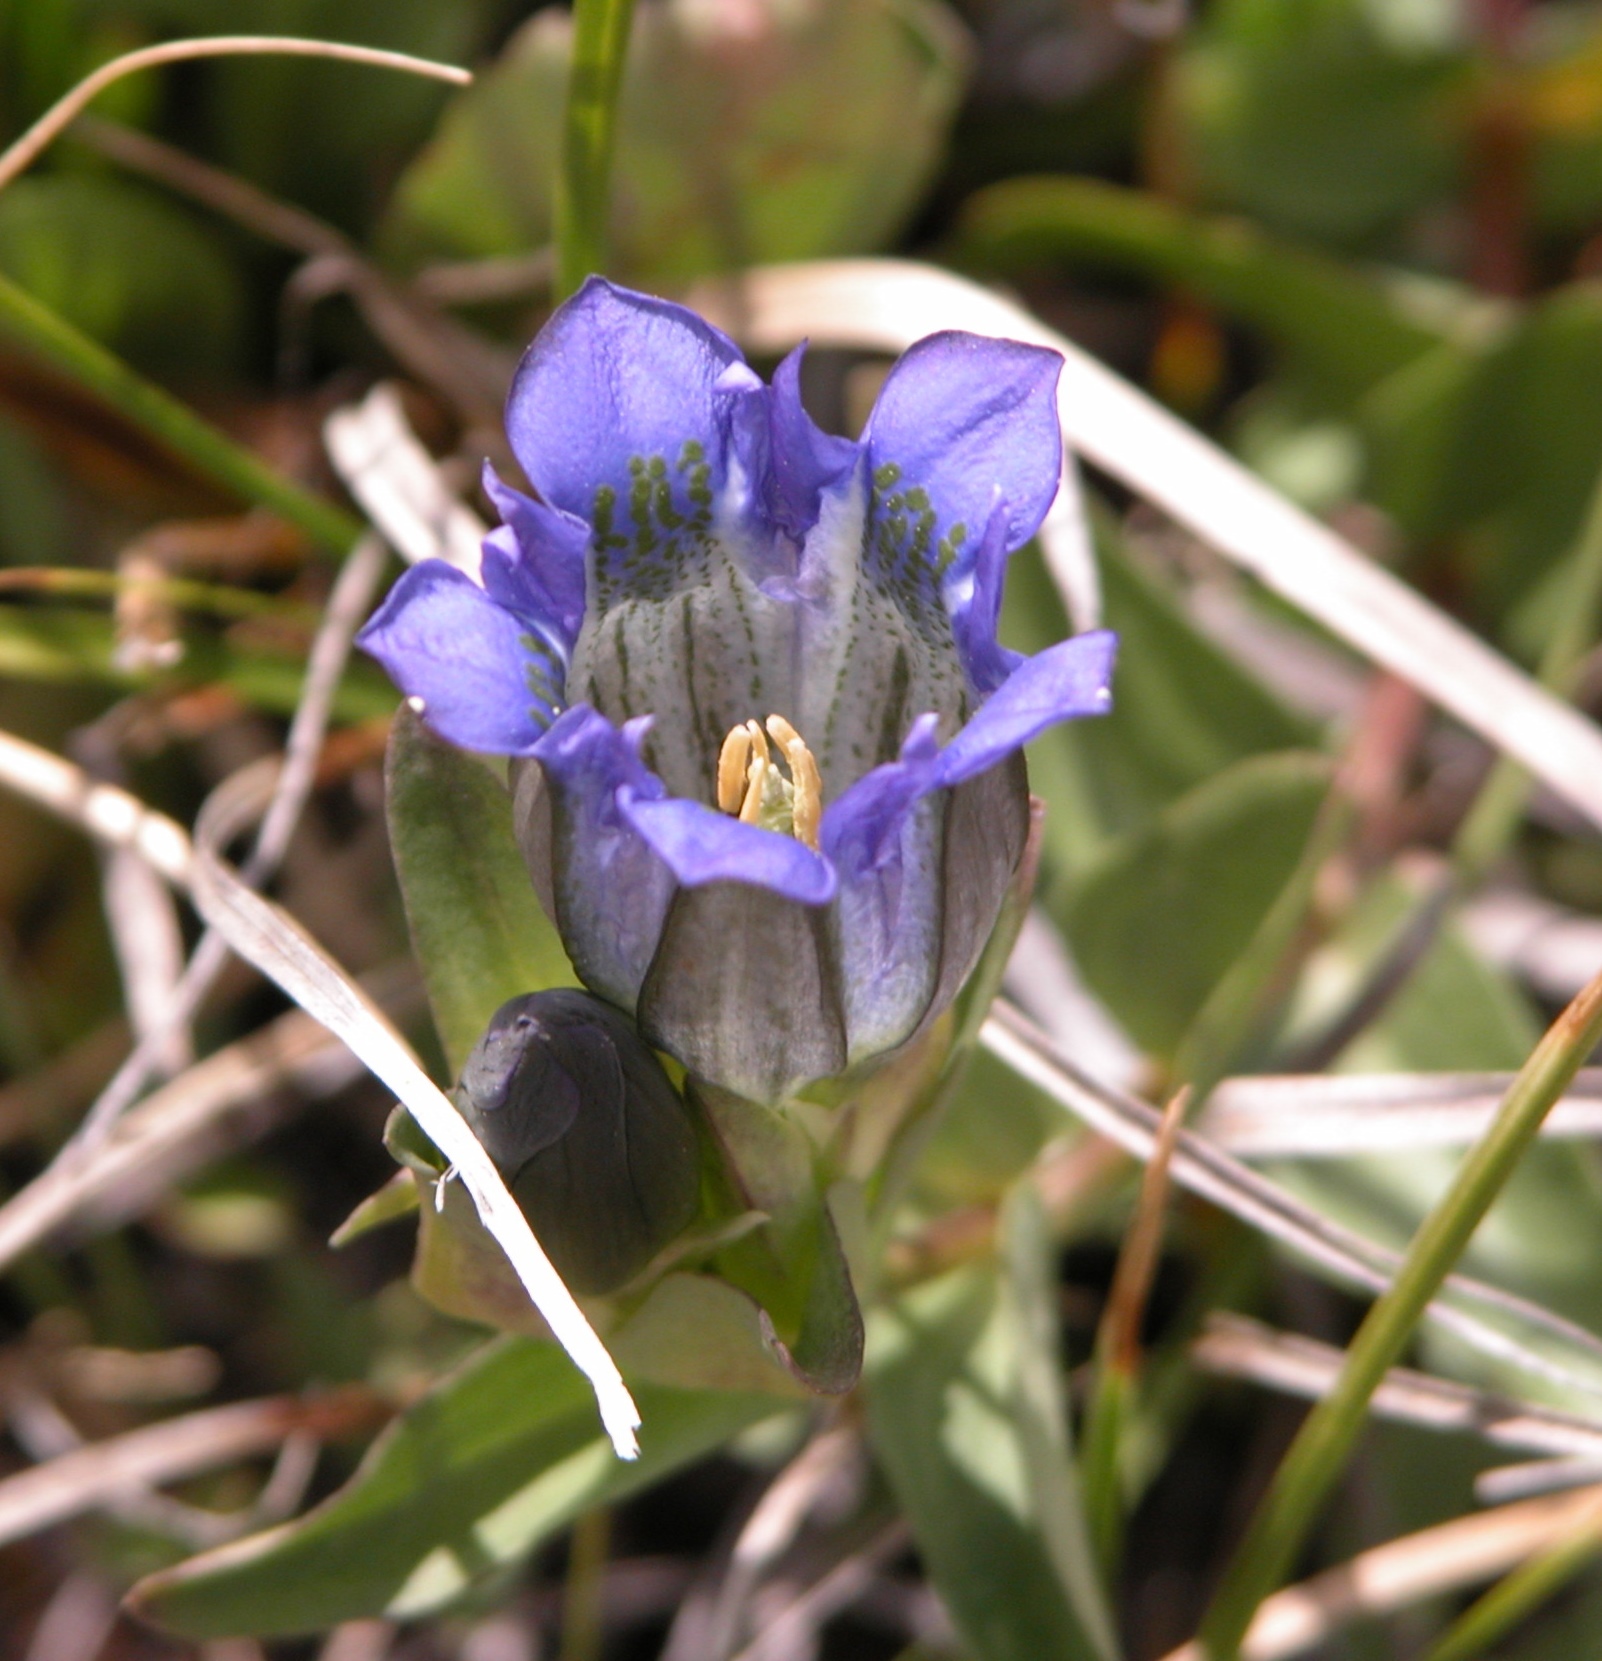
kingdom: Plantae
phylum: Tracheophyta
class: Magnoliopsida
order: Gentianales
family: Gentianaceae
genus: Gentiana
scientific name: Gentiana parryi
